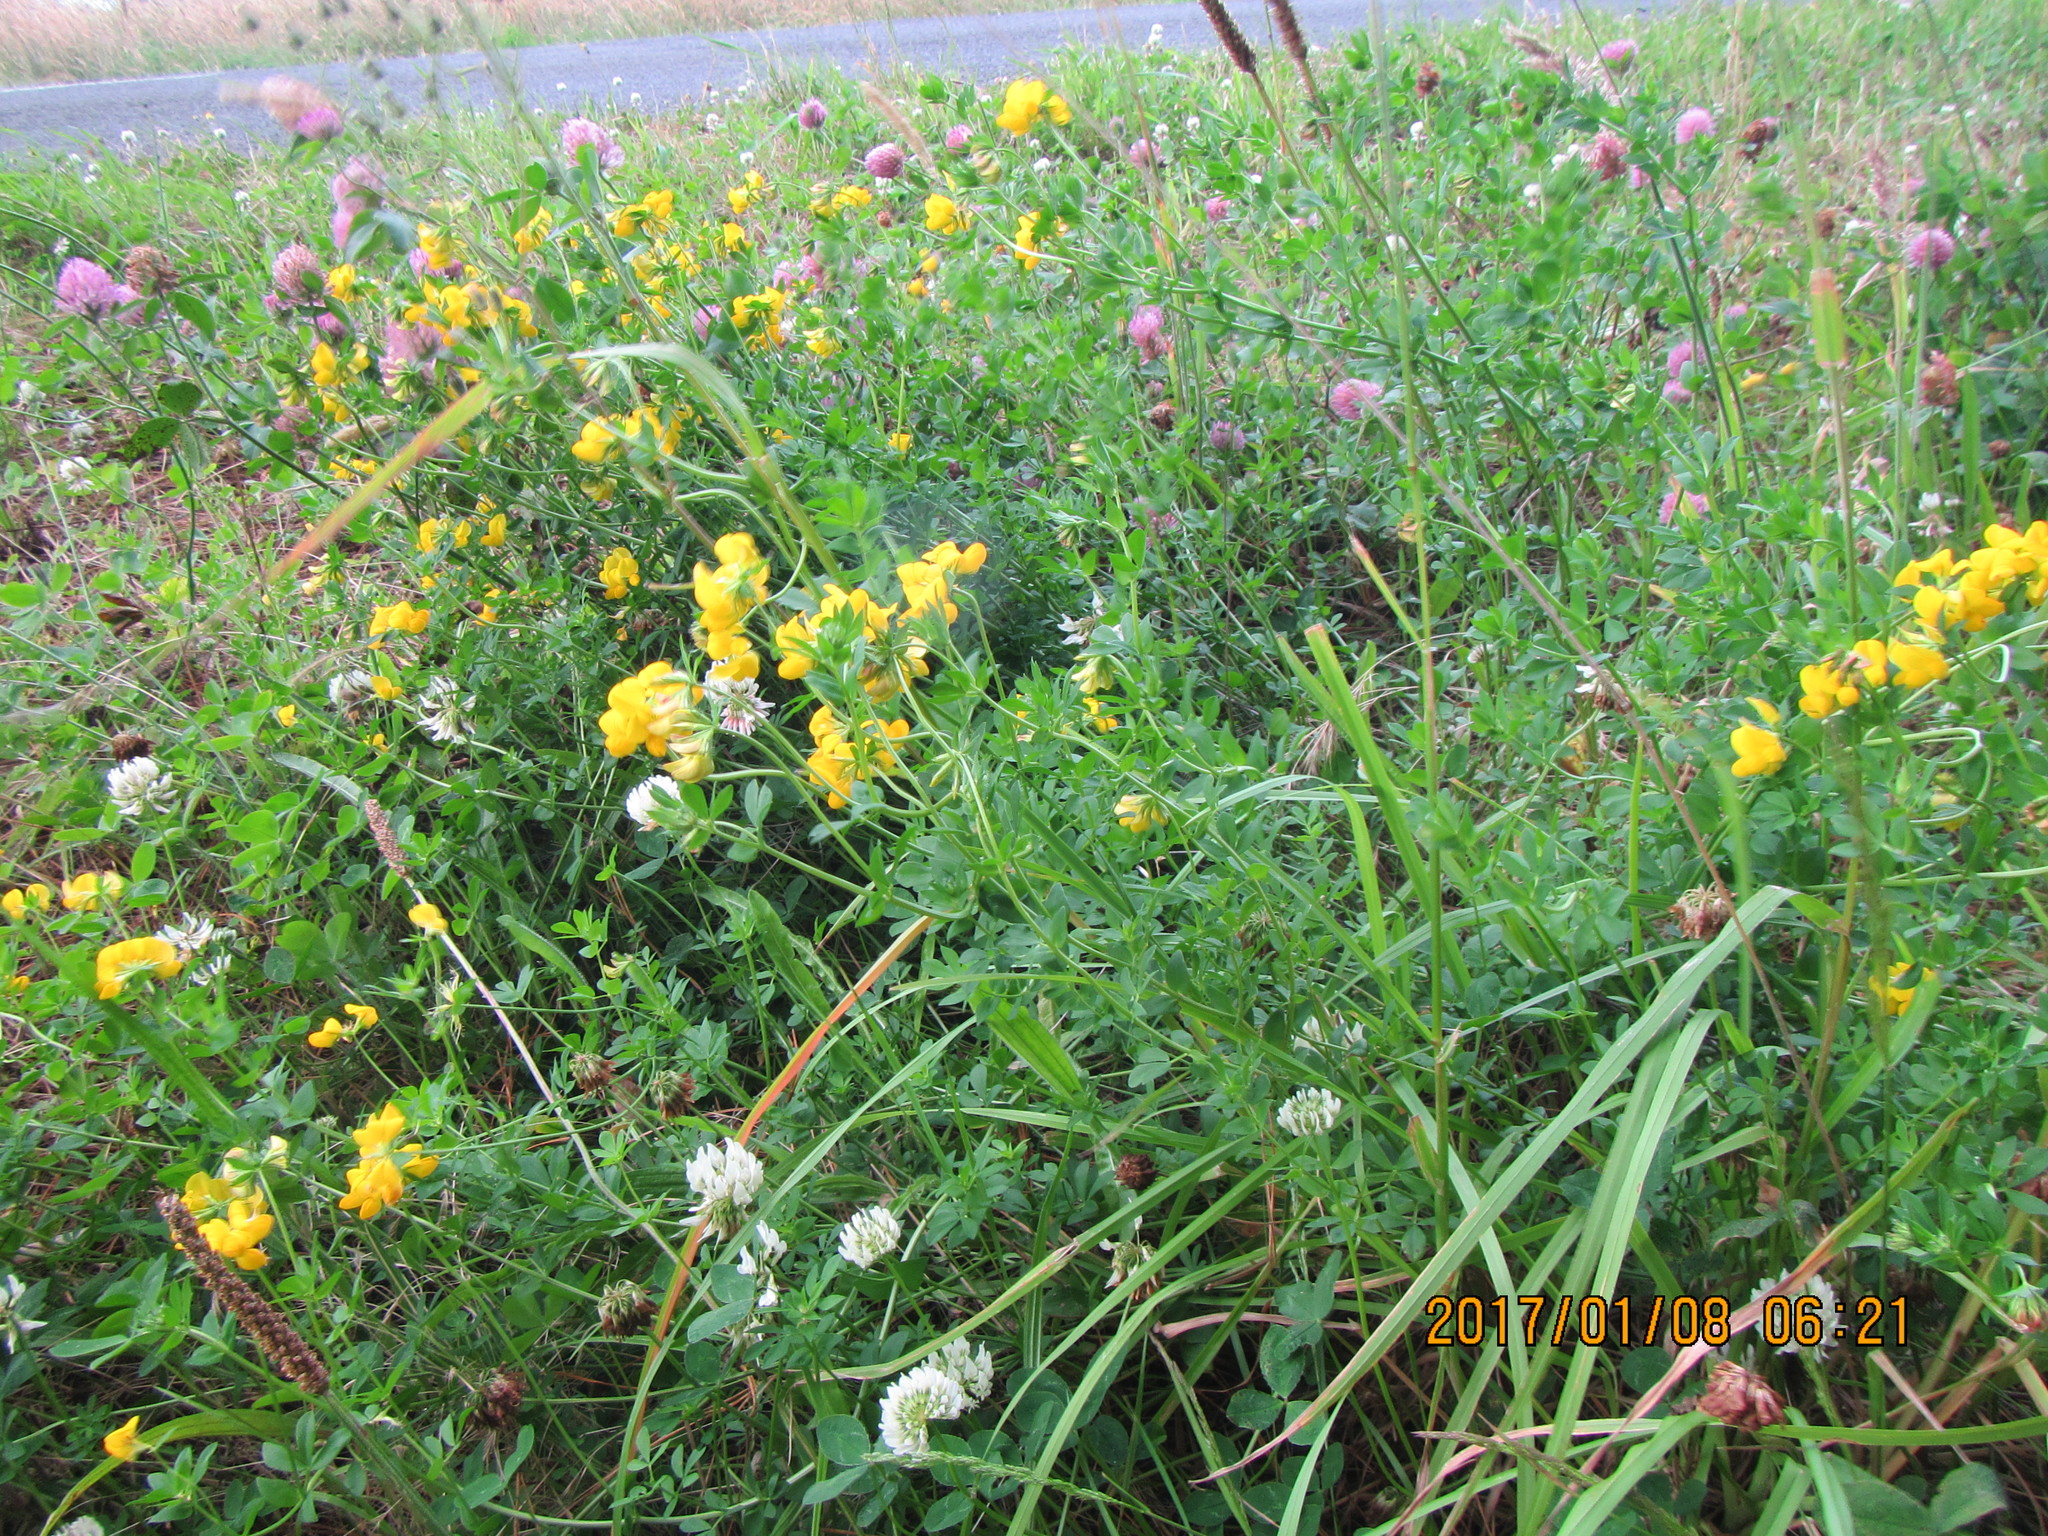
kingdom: Plantae
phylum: Tracheophyta
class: Magnoliopsida
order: Fabales
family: Fabaceae
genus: Lotus
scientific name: Lotus corniculatus
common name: Common bird's-foot-trefoil
